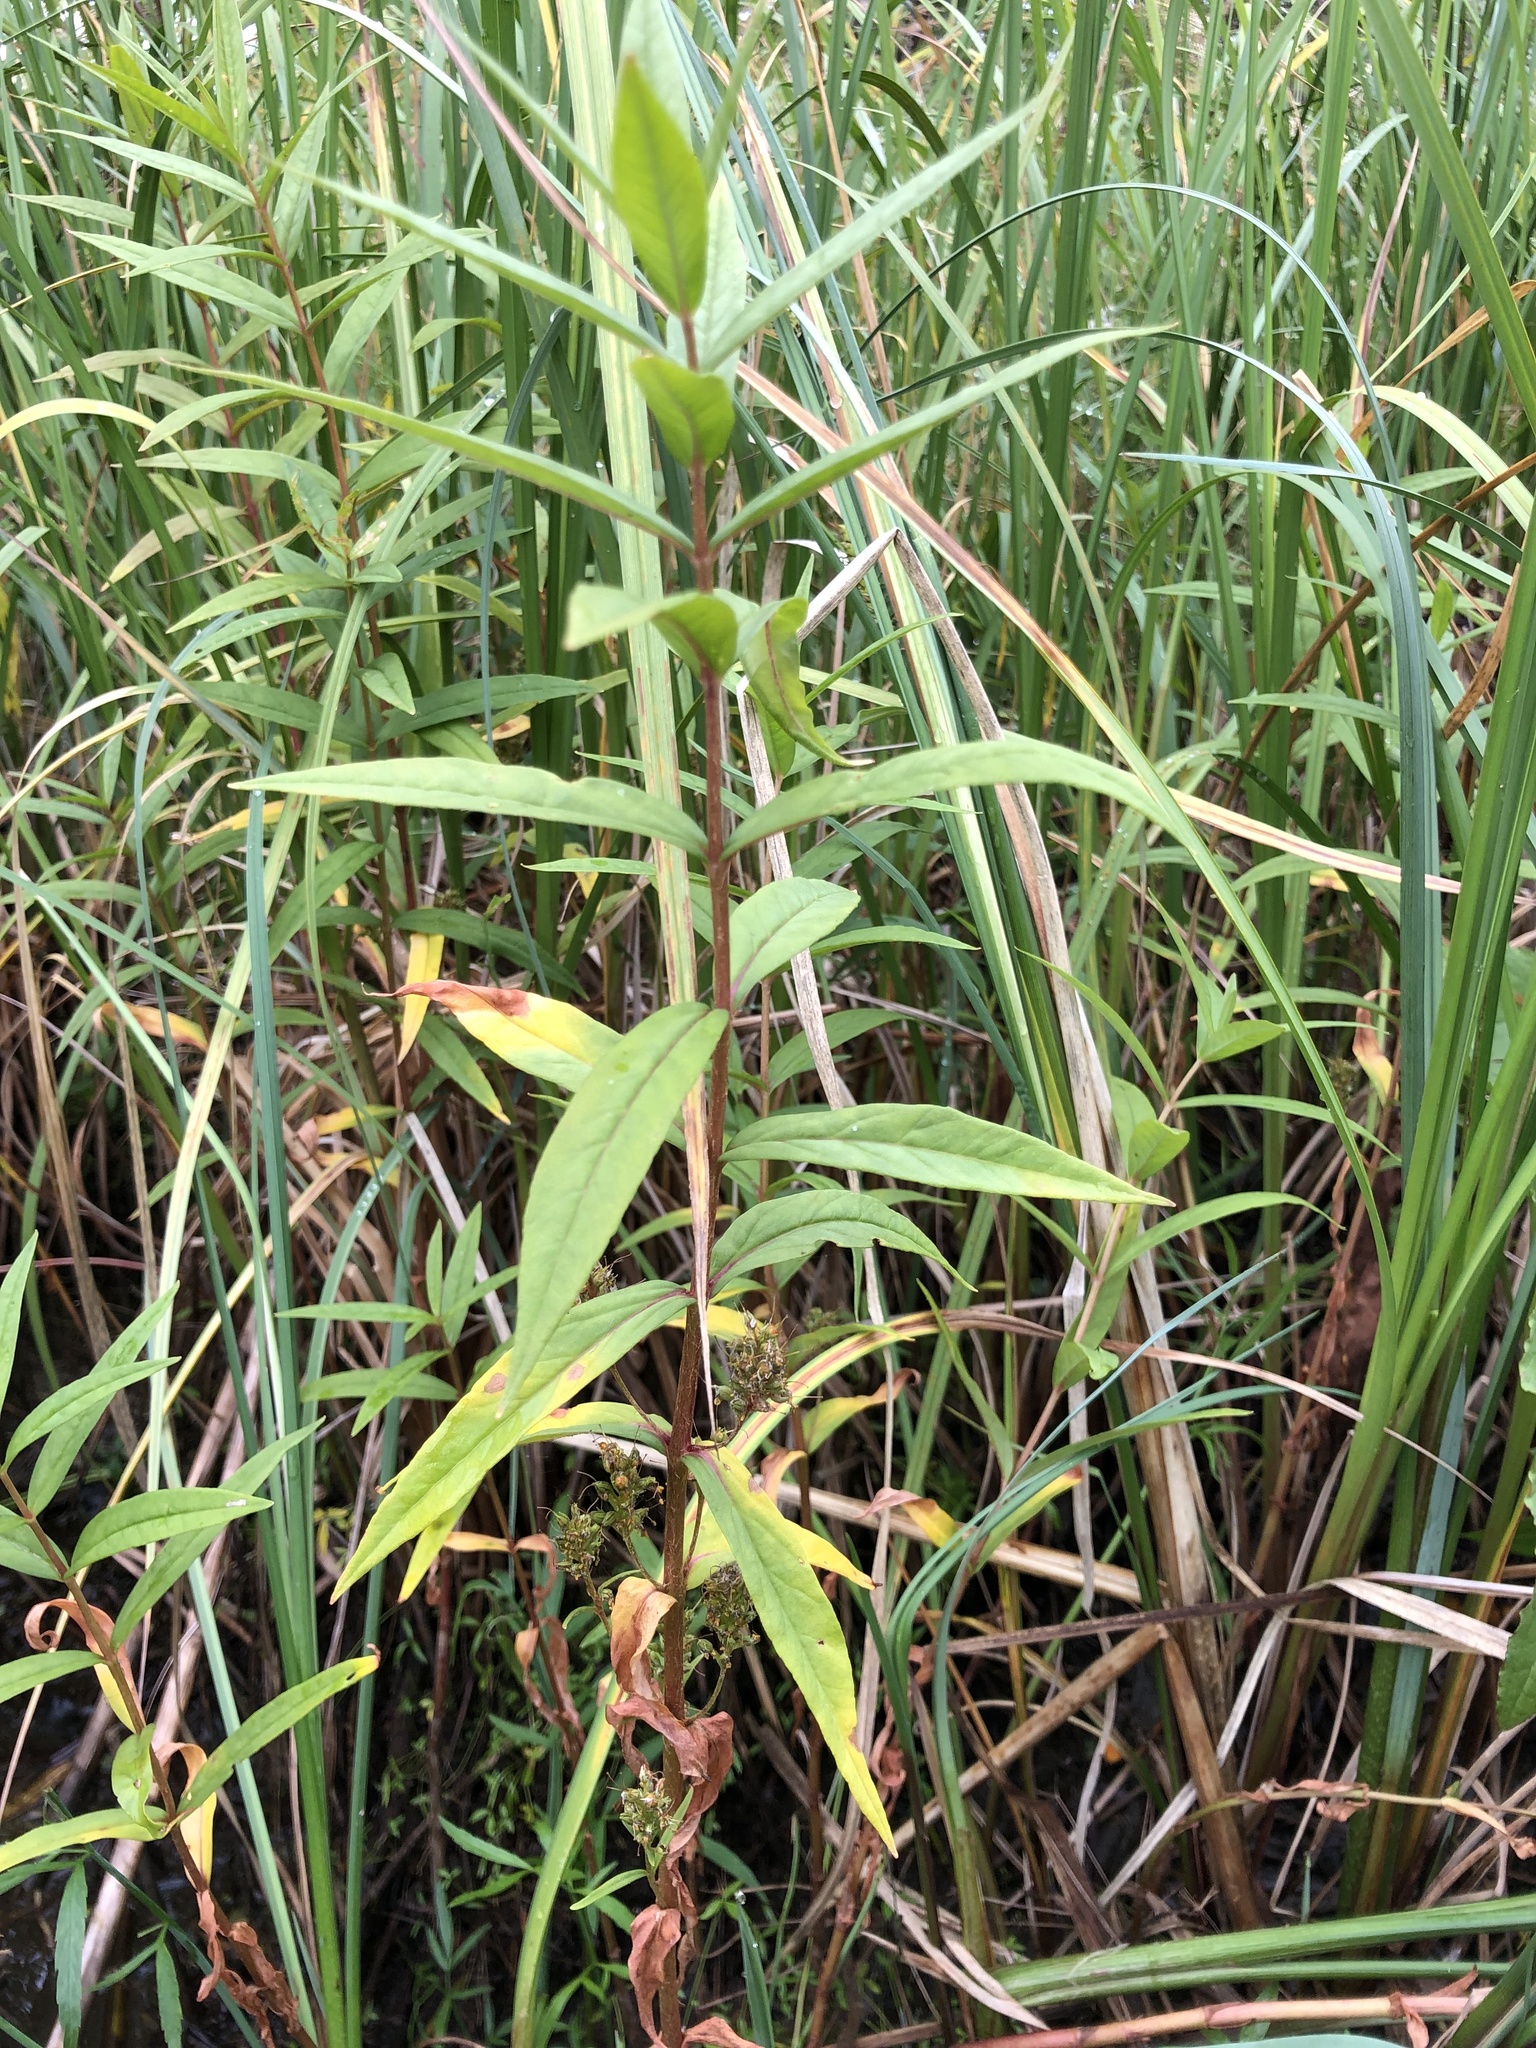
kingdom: Plantae
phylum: Tracheophyta
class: Magnoliopsida
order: Ericales
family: Primulaceae
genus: Lysimachia
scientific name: Lysimachia thyrsiflora
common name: Tufted loosestrife
